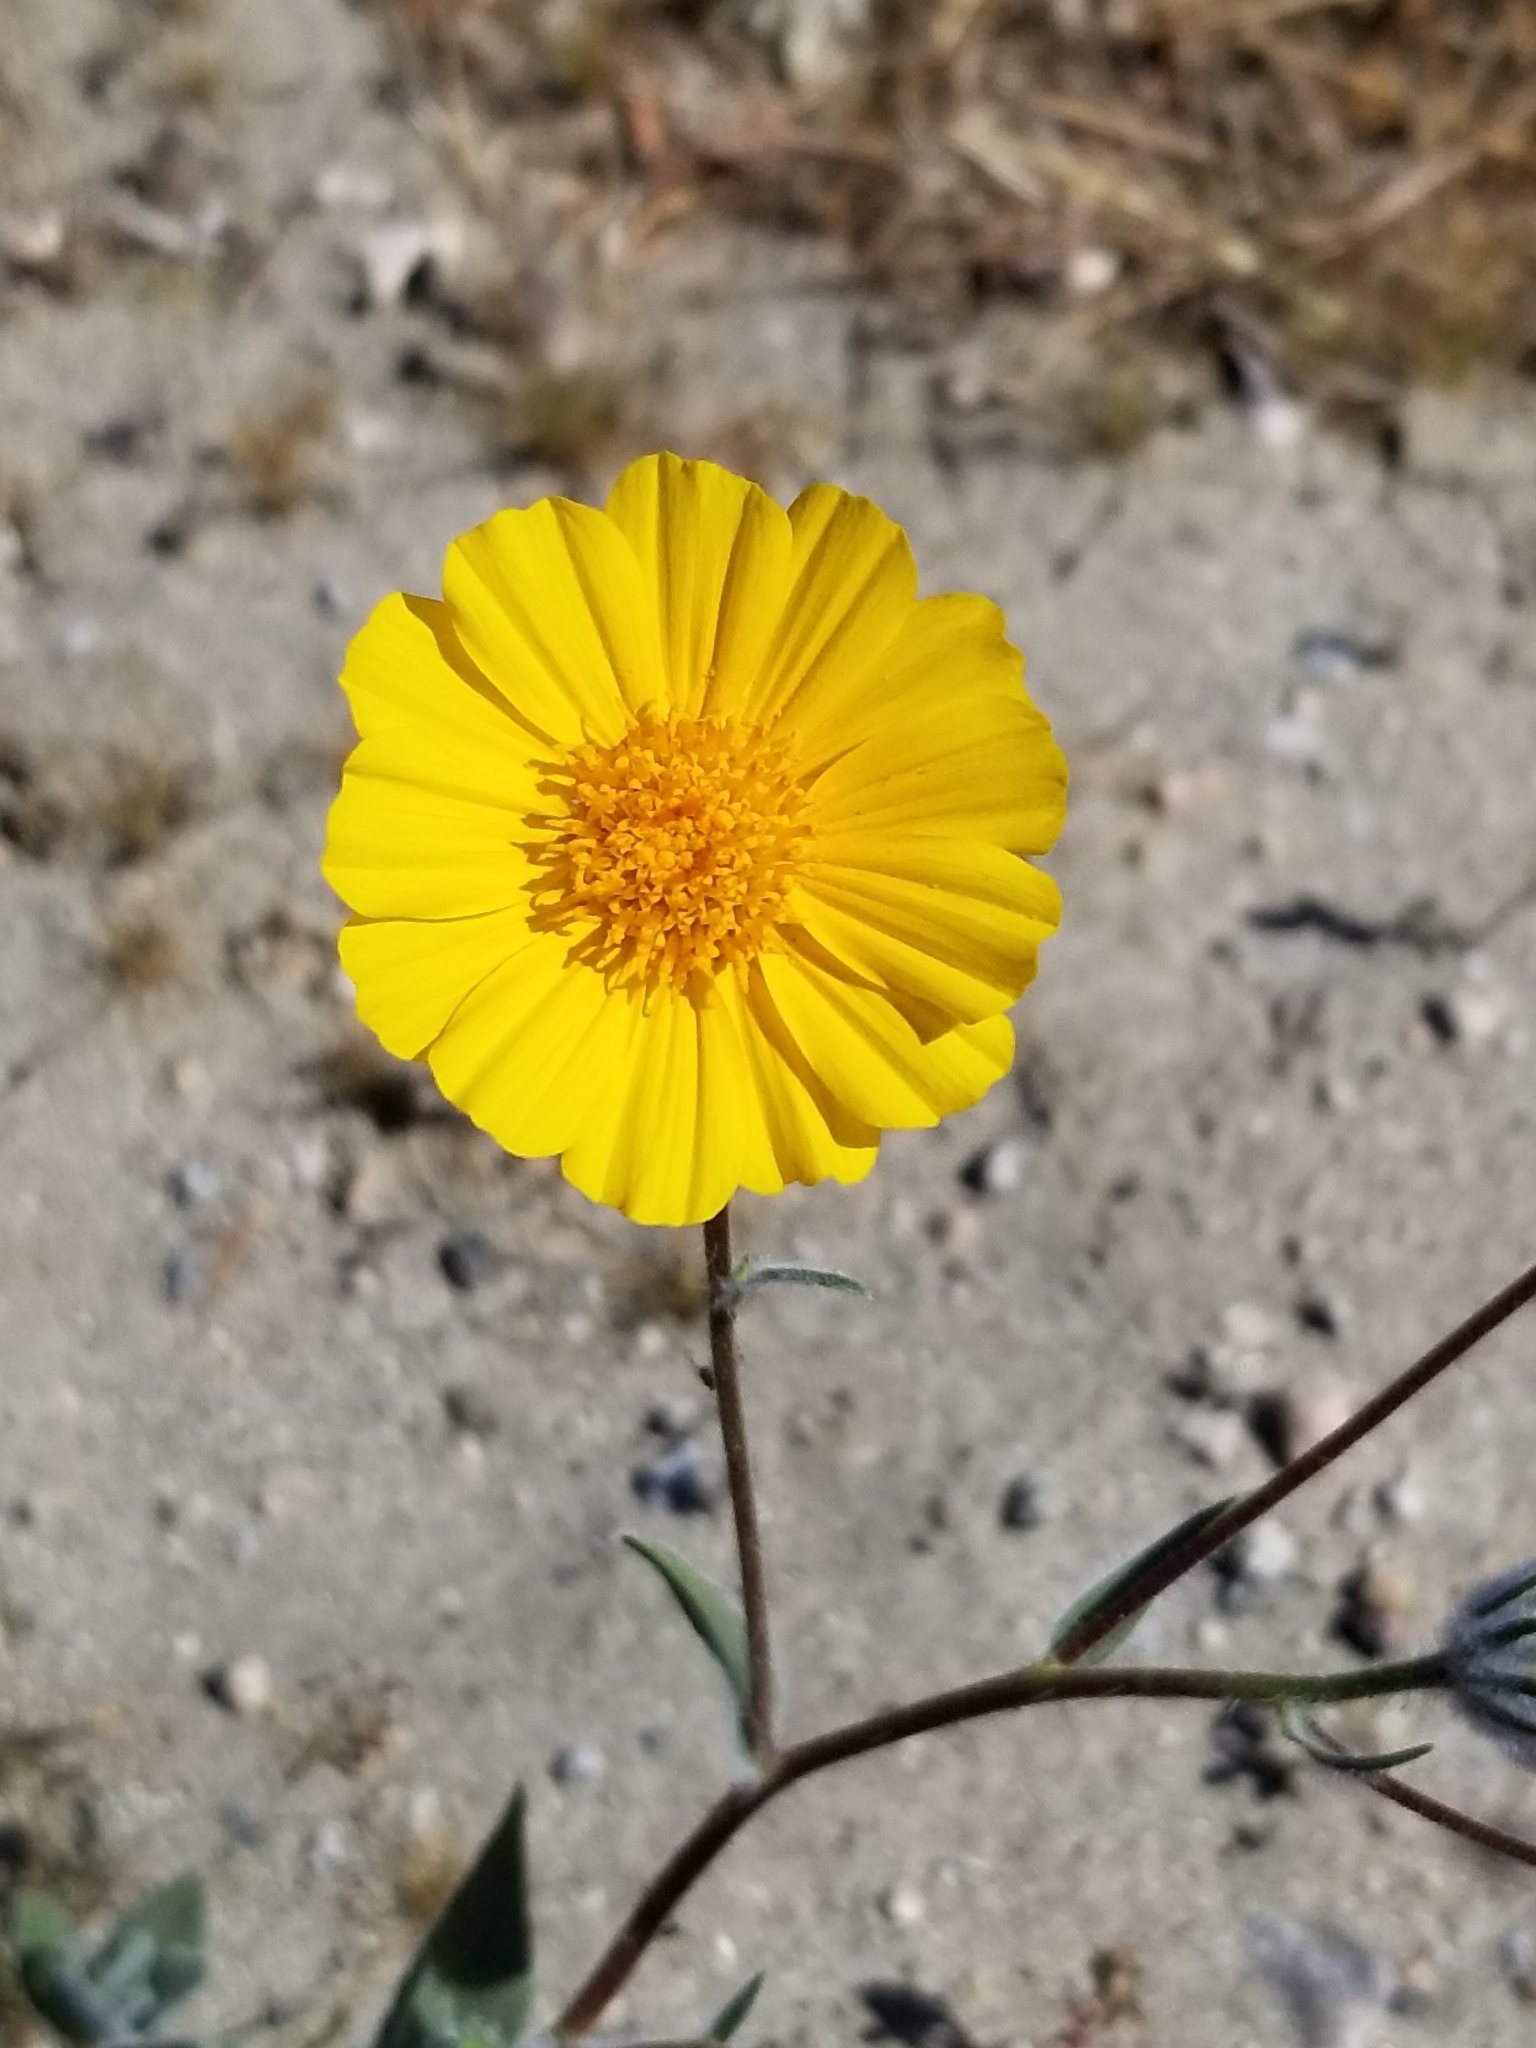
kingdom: Plantae
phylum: Tracheophyta
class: Magnoliopsida
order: Asterales
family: Asteraceae
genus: Geraea
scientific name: Geraea canescens
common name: Desert-gold
